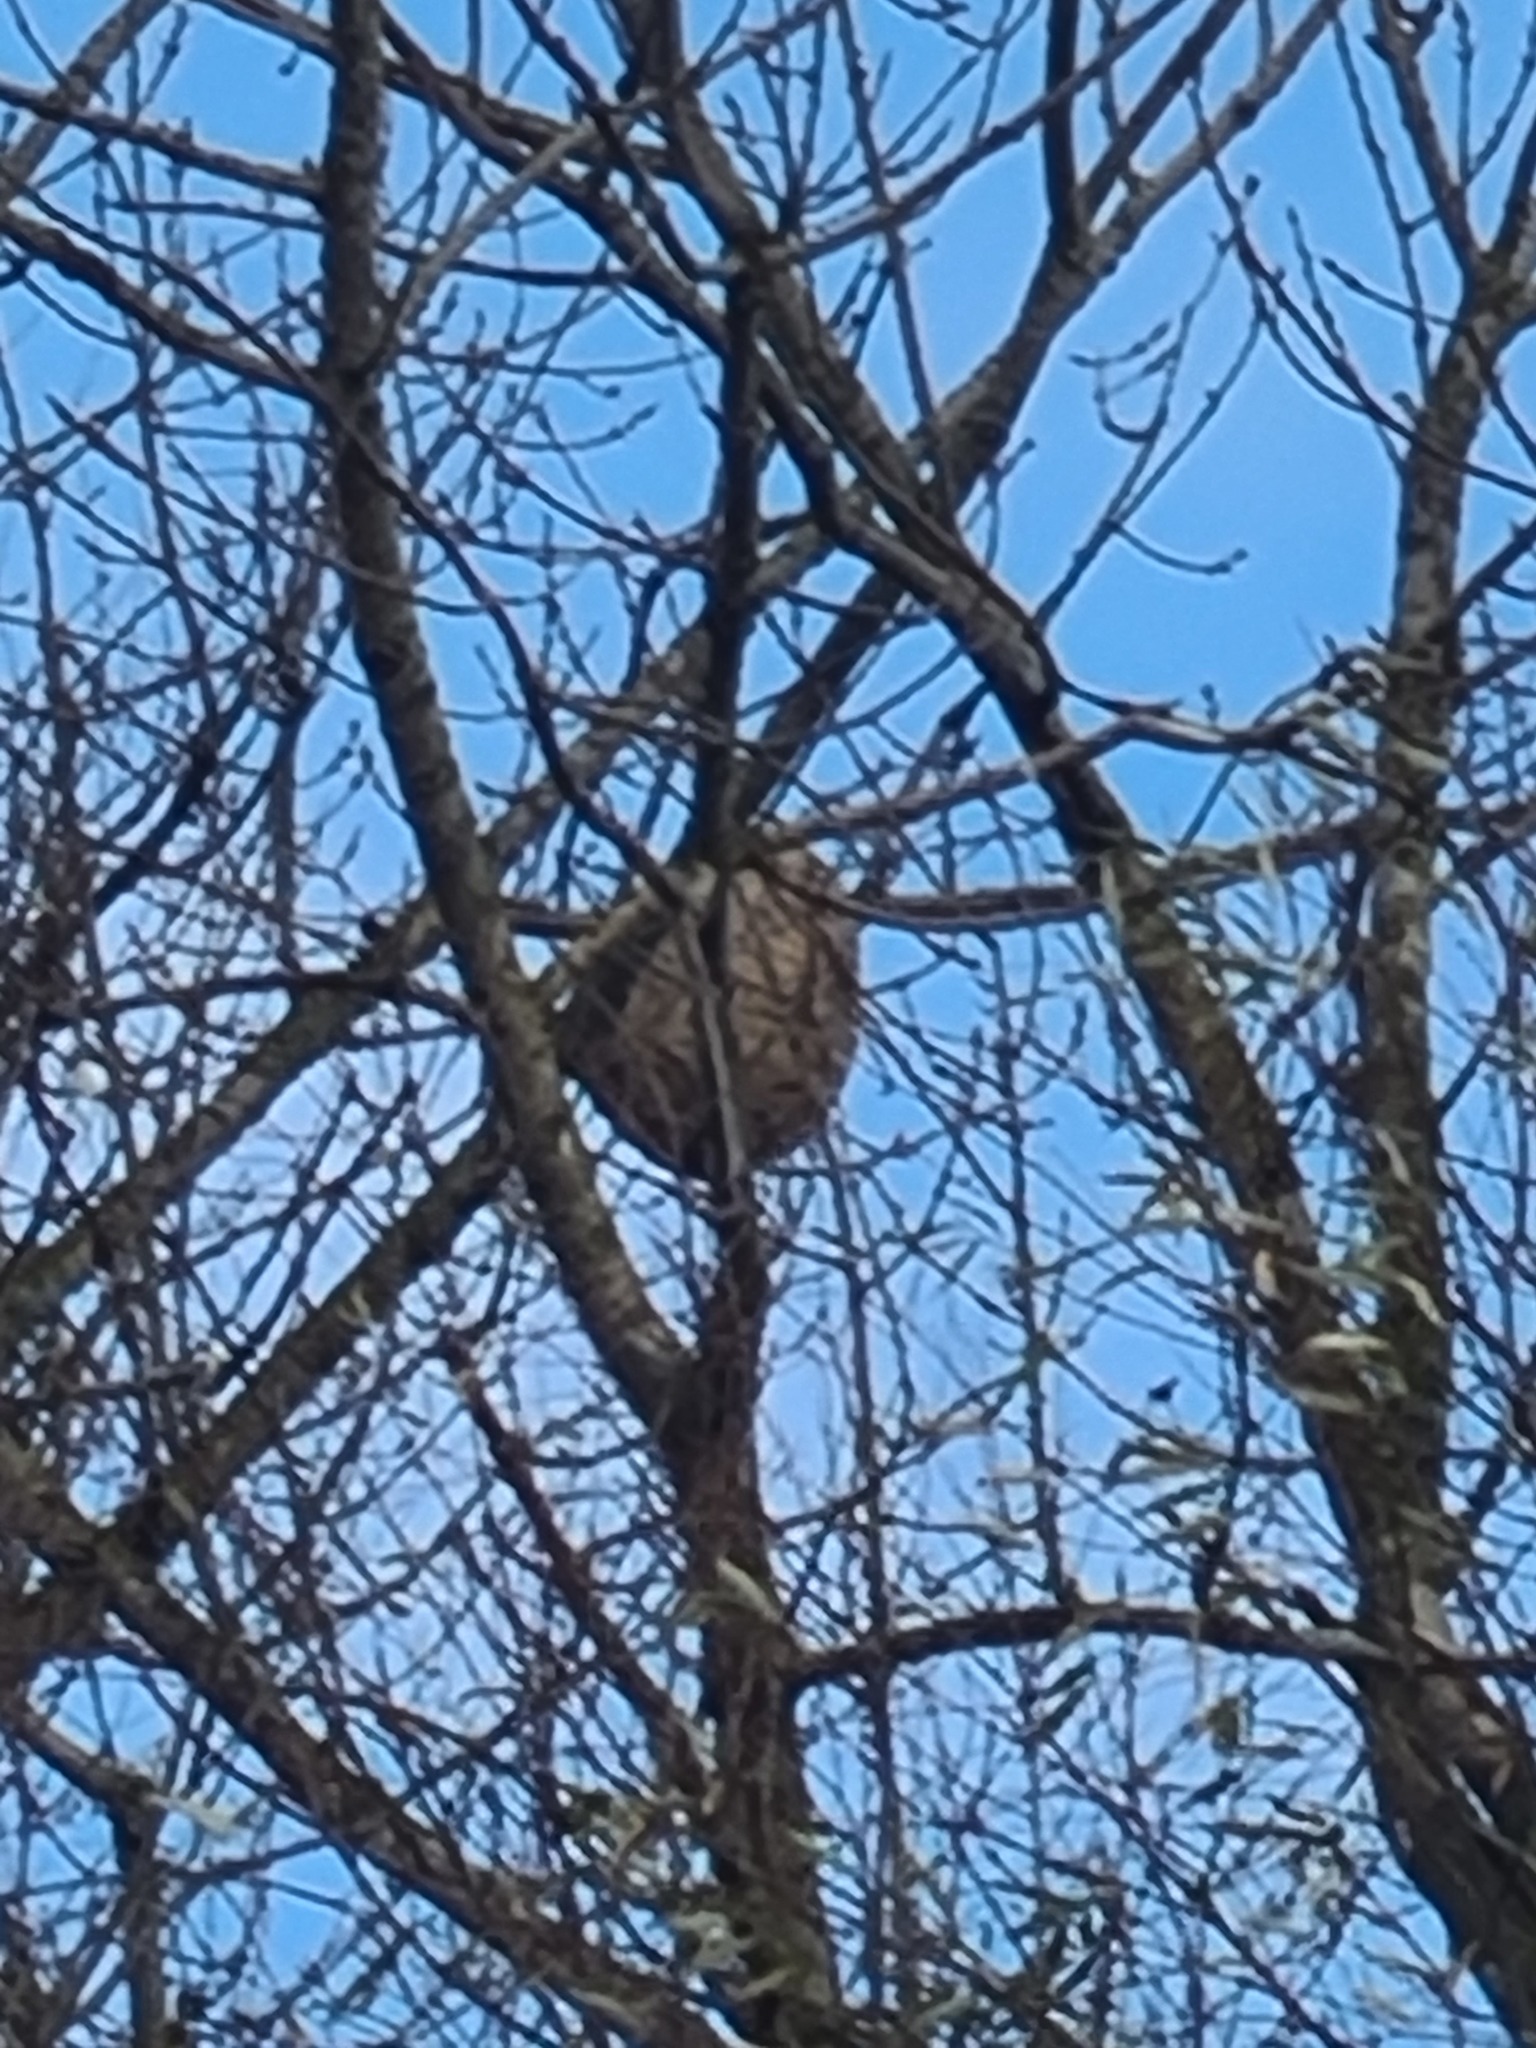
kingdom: Animalia
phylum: Arthropoda
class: Insecta
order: Hymenoptera
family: Vespidae
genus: Vespa
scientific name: Vespa velutina
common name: Asian hornet
